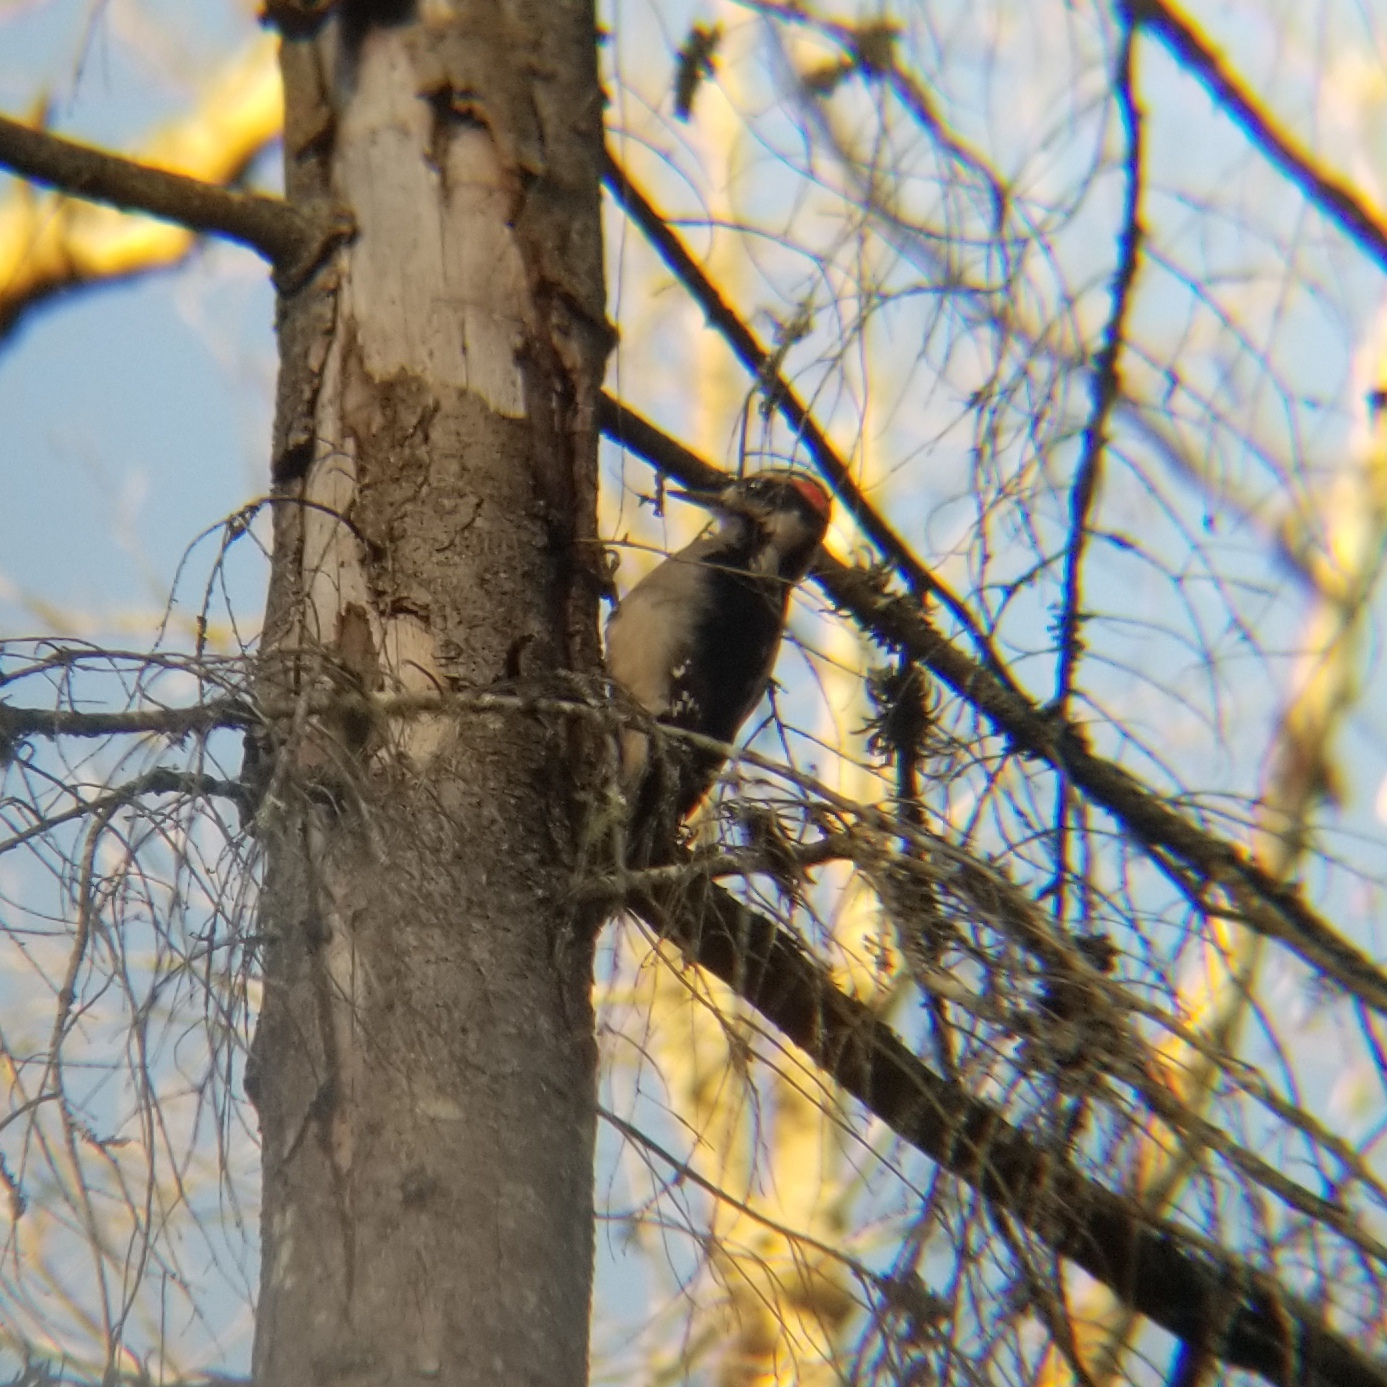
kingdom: Animalia
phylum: Chordata
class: Aves
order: Piciformes
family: Picidae
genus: Leuconotopicus
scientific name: Leuconotopicus villosus
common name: Hairy woodpecker
